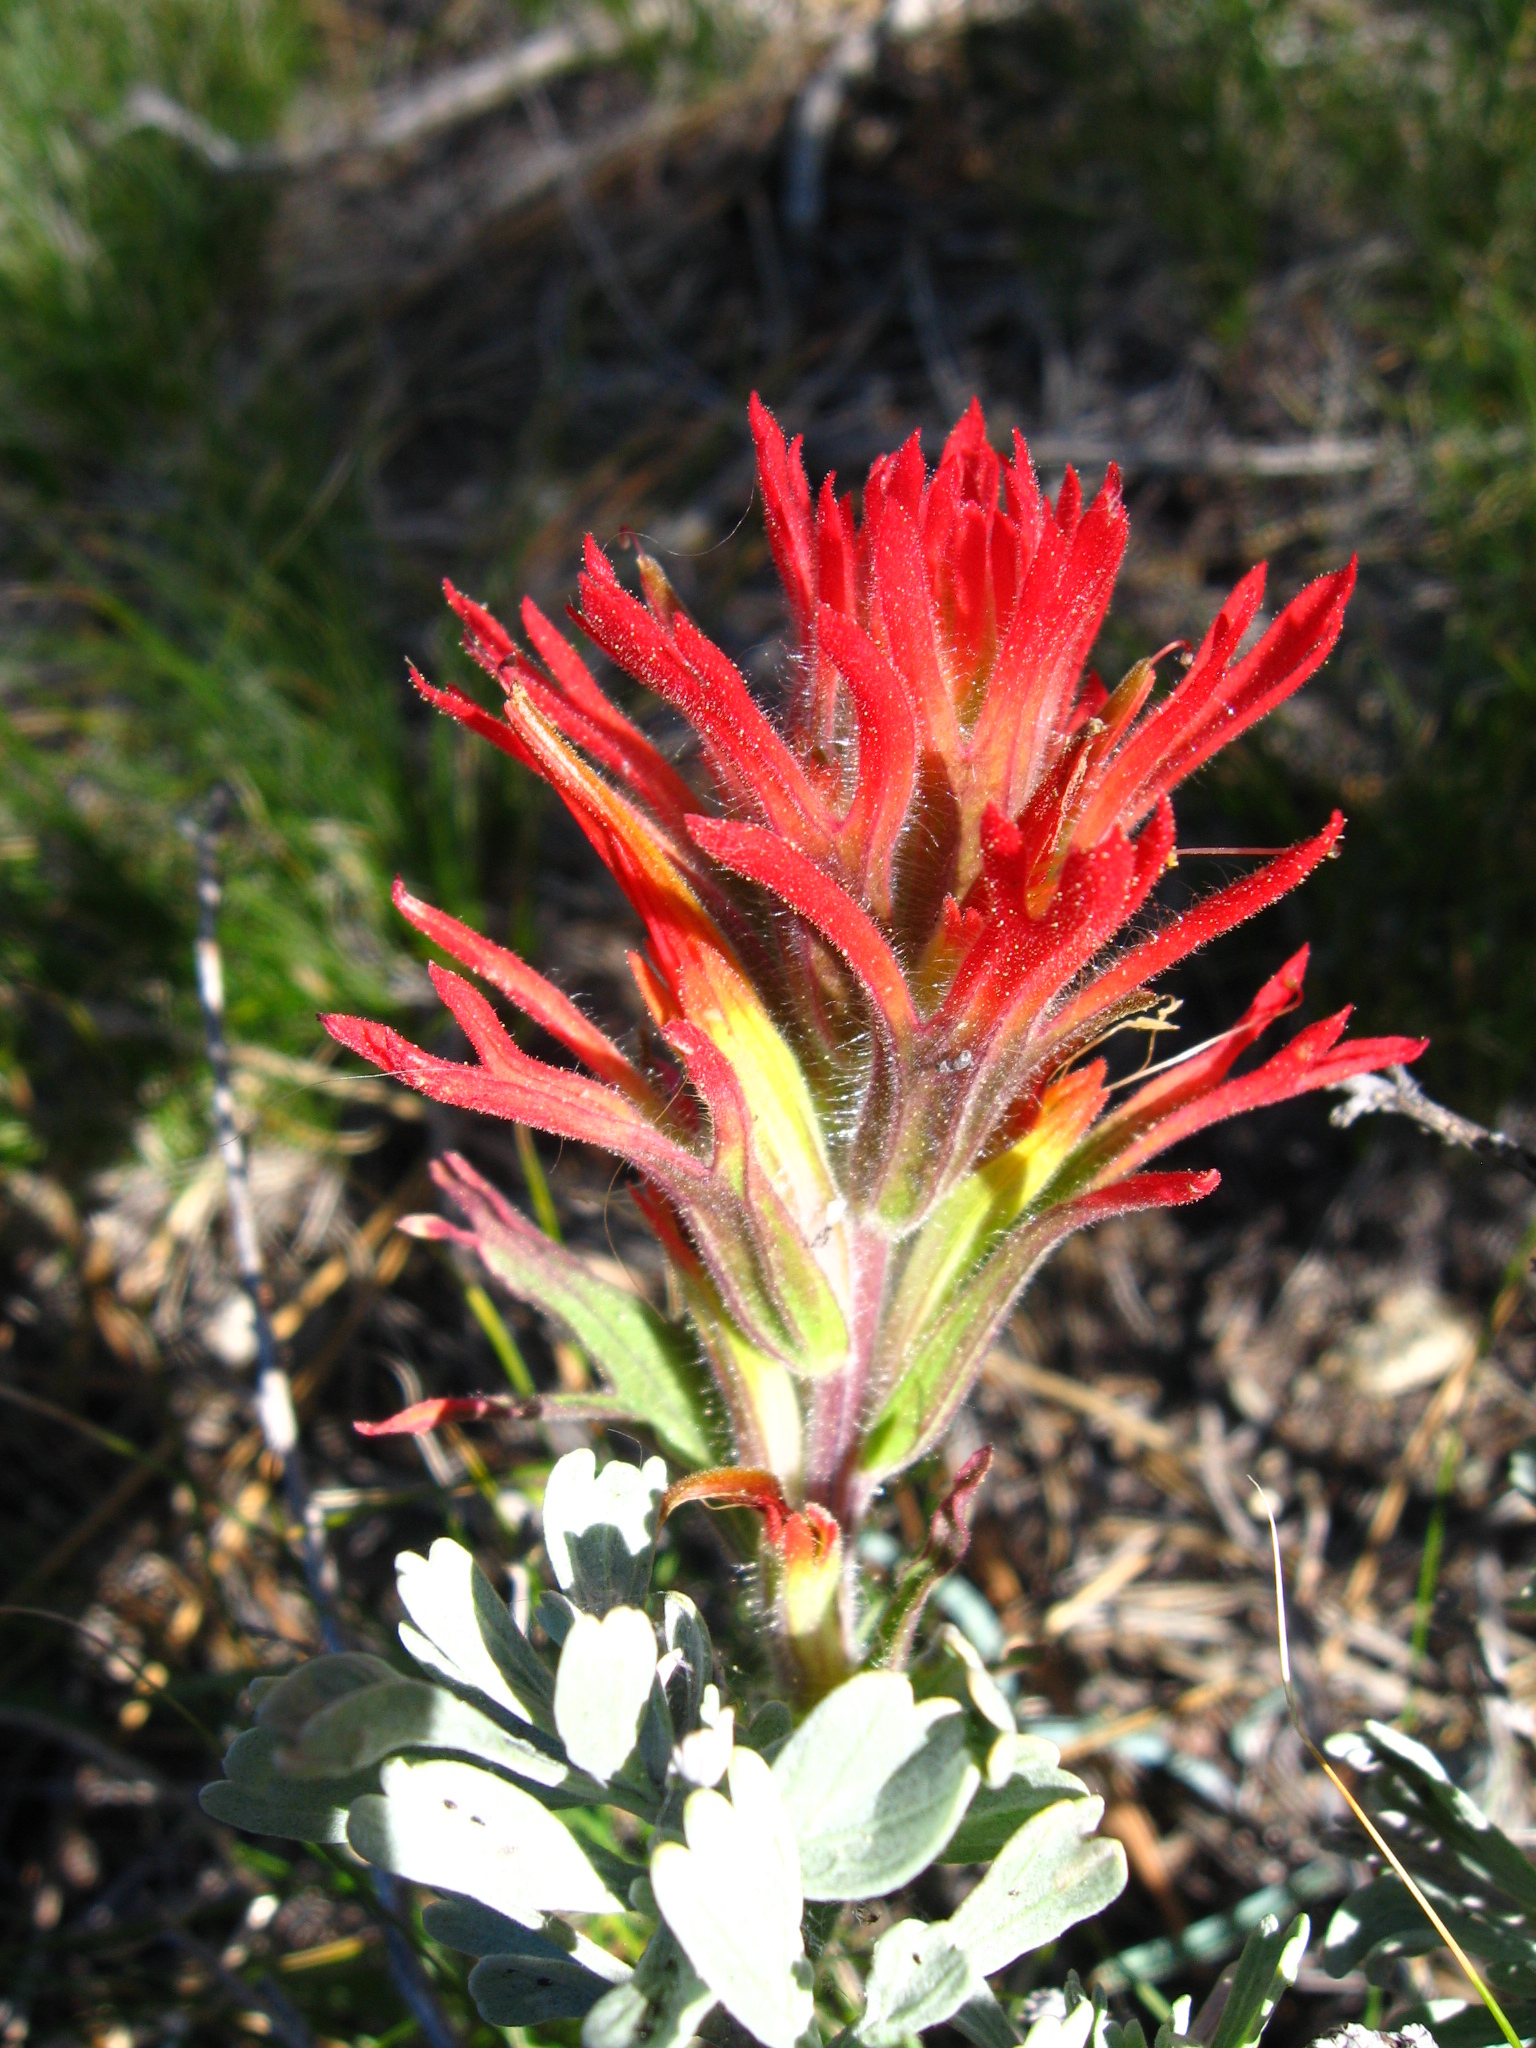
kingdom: Plantae
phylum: Tracheophyta
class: Magnoliopsida
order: Lamiales
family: Orobanchaceae
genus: Castilleja
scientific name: Castilleja applegatei
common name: Wavy-leaf paintbrush
